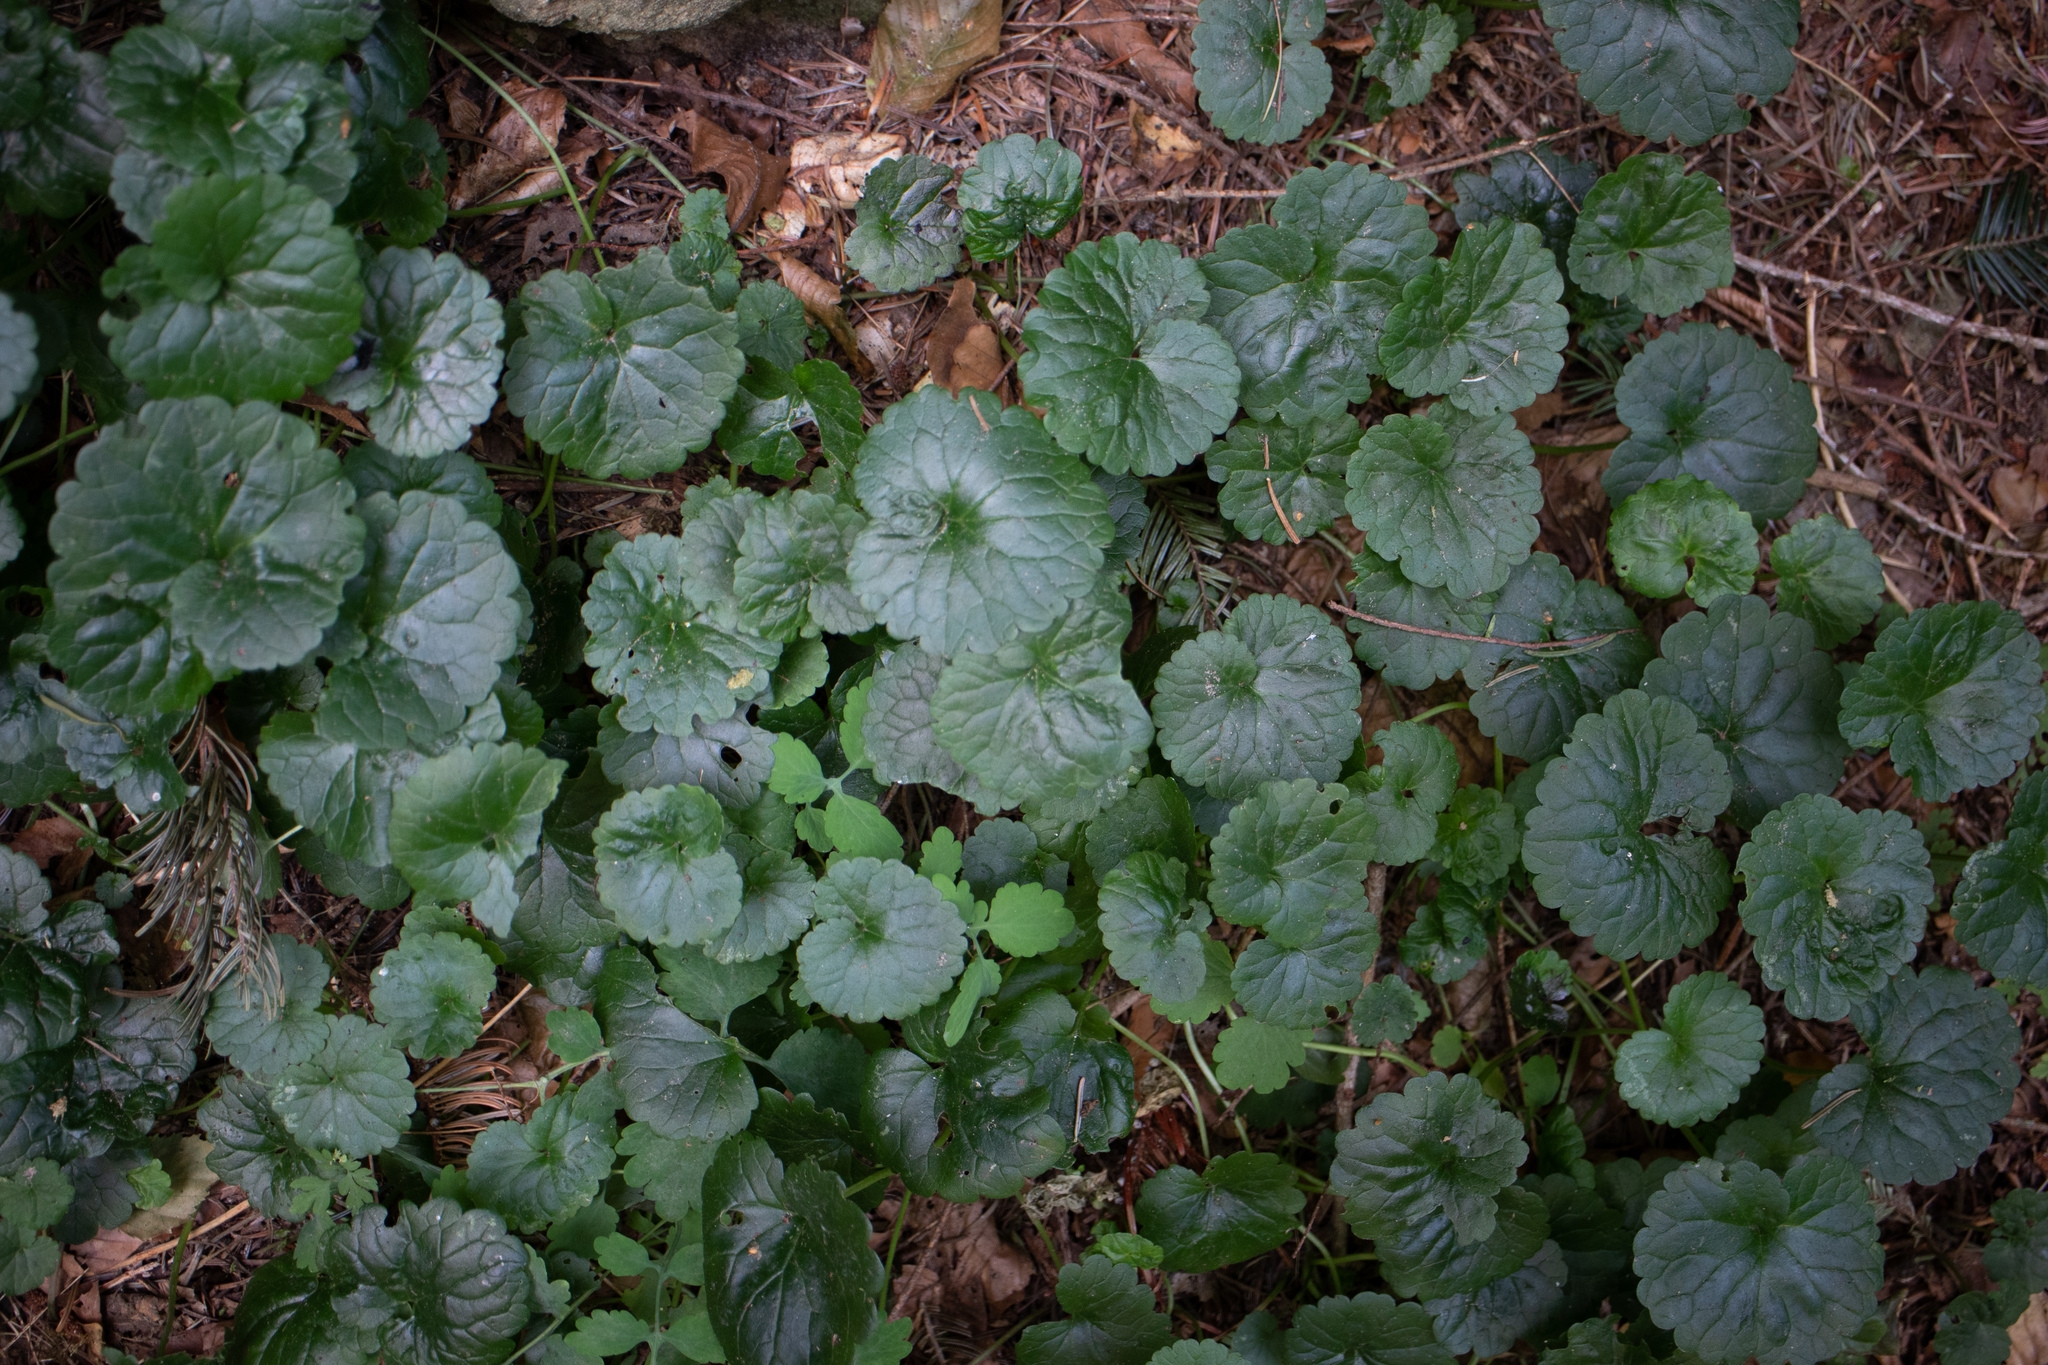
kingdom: Plantae
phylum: Tracheophyta
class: Magnoliopsida
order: Lamiales
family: Lamiaceae
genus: Glechoma
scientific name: Glechoma hederacea
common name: Ground ivy
